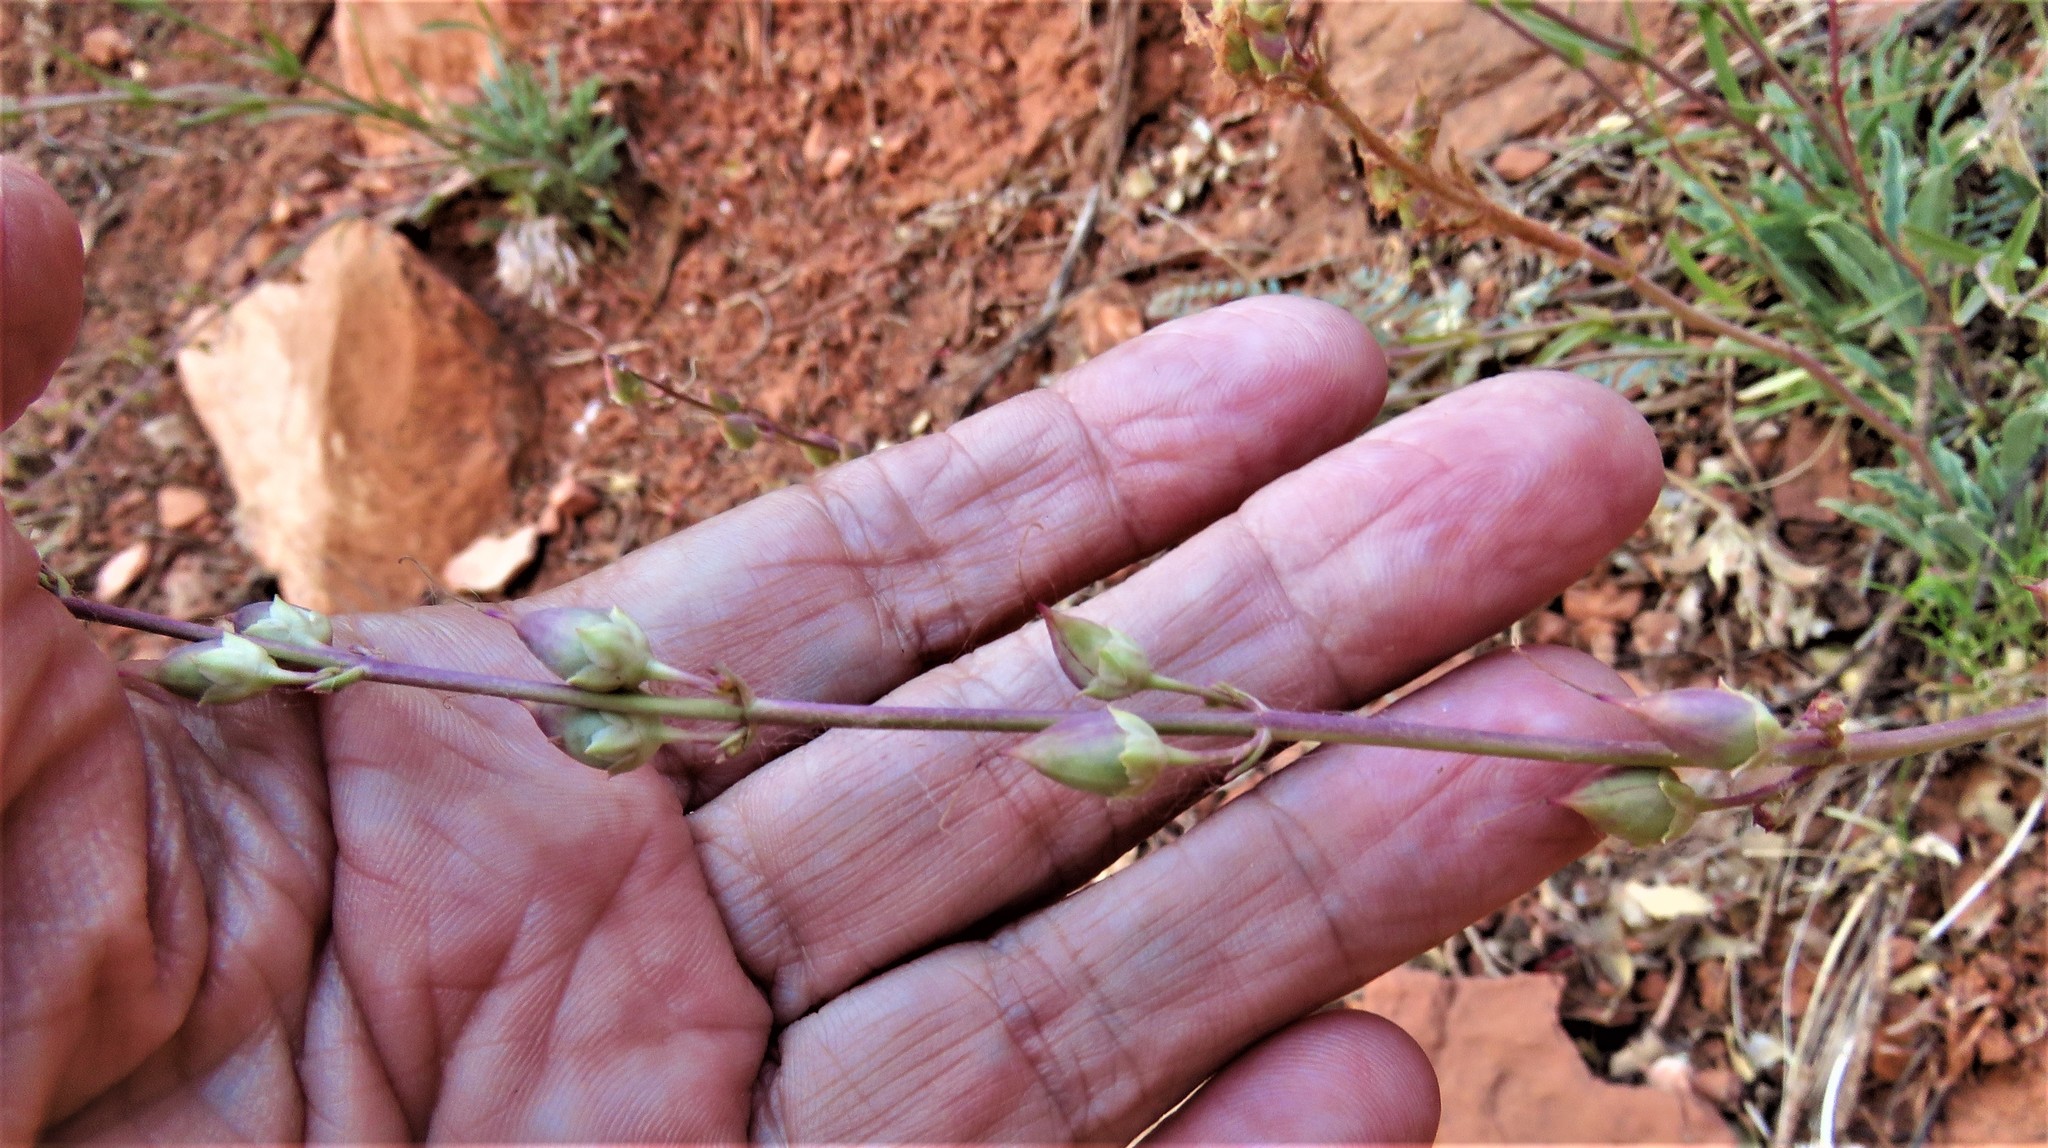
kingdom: Plantae
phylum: Tracheophyta
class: Magnoliopsida
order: Lamiales
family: Plantaginaceae
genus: Penstemon
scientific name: Penstemon utahensis
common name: Utah penstemon
